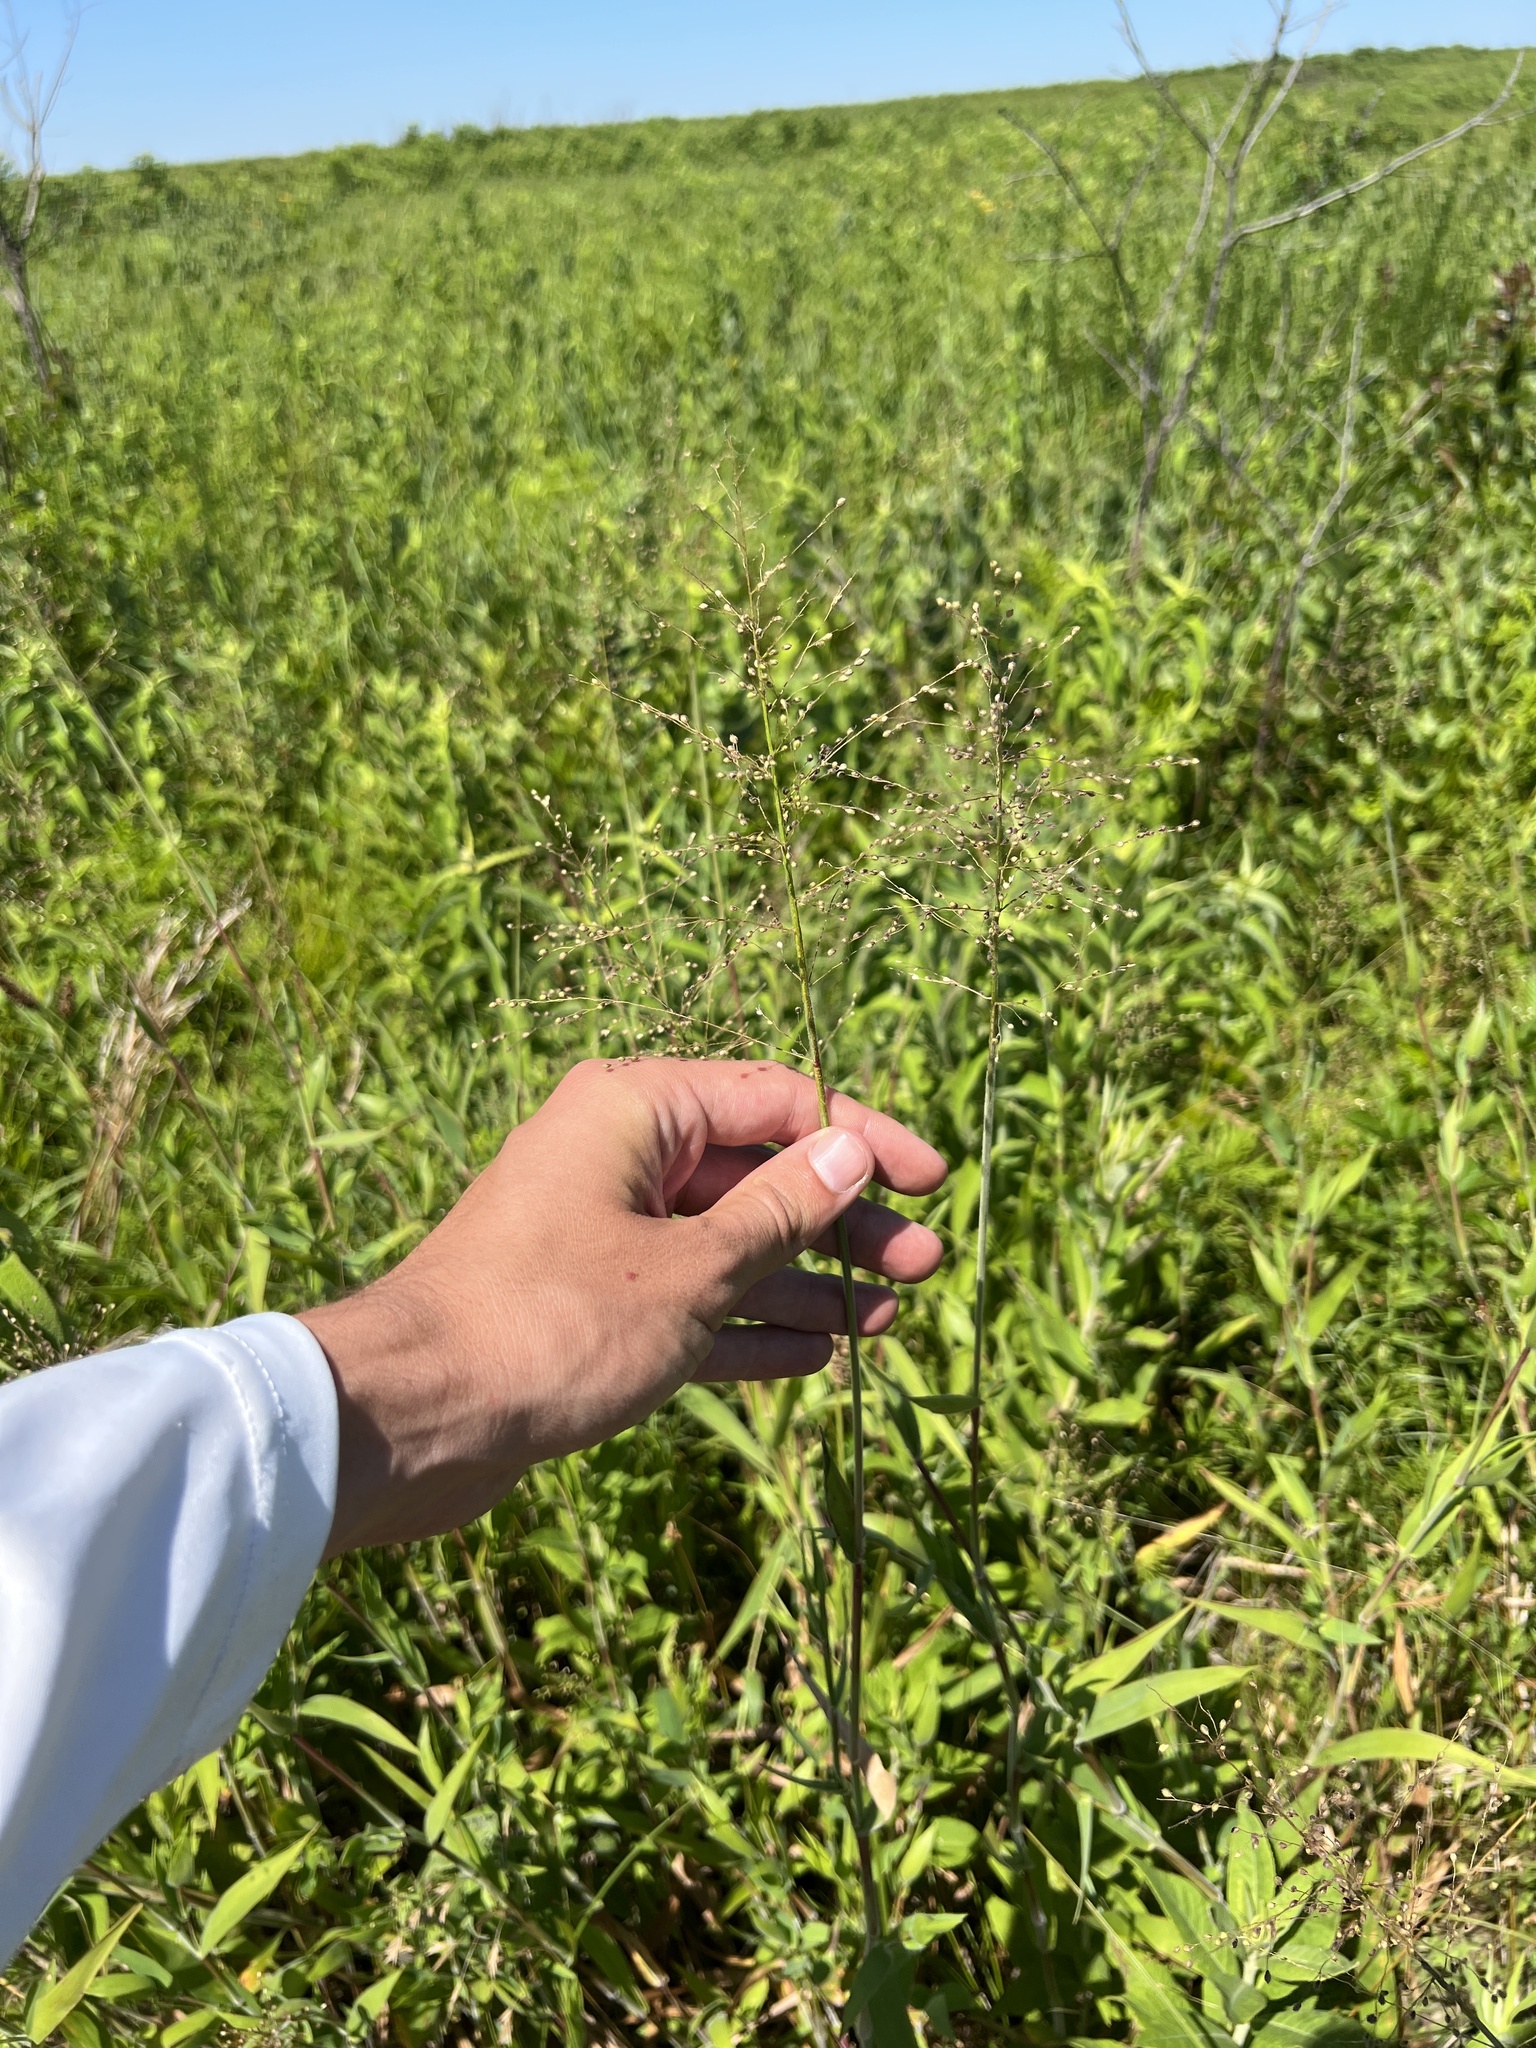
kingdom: Plantae
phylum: Tracheophyta
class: Liliopsida
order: Poales
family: Poaceae
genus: Dichanthelium
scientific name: Dichanthelium scoparium
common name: Velvety panic grass
